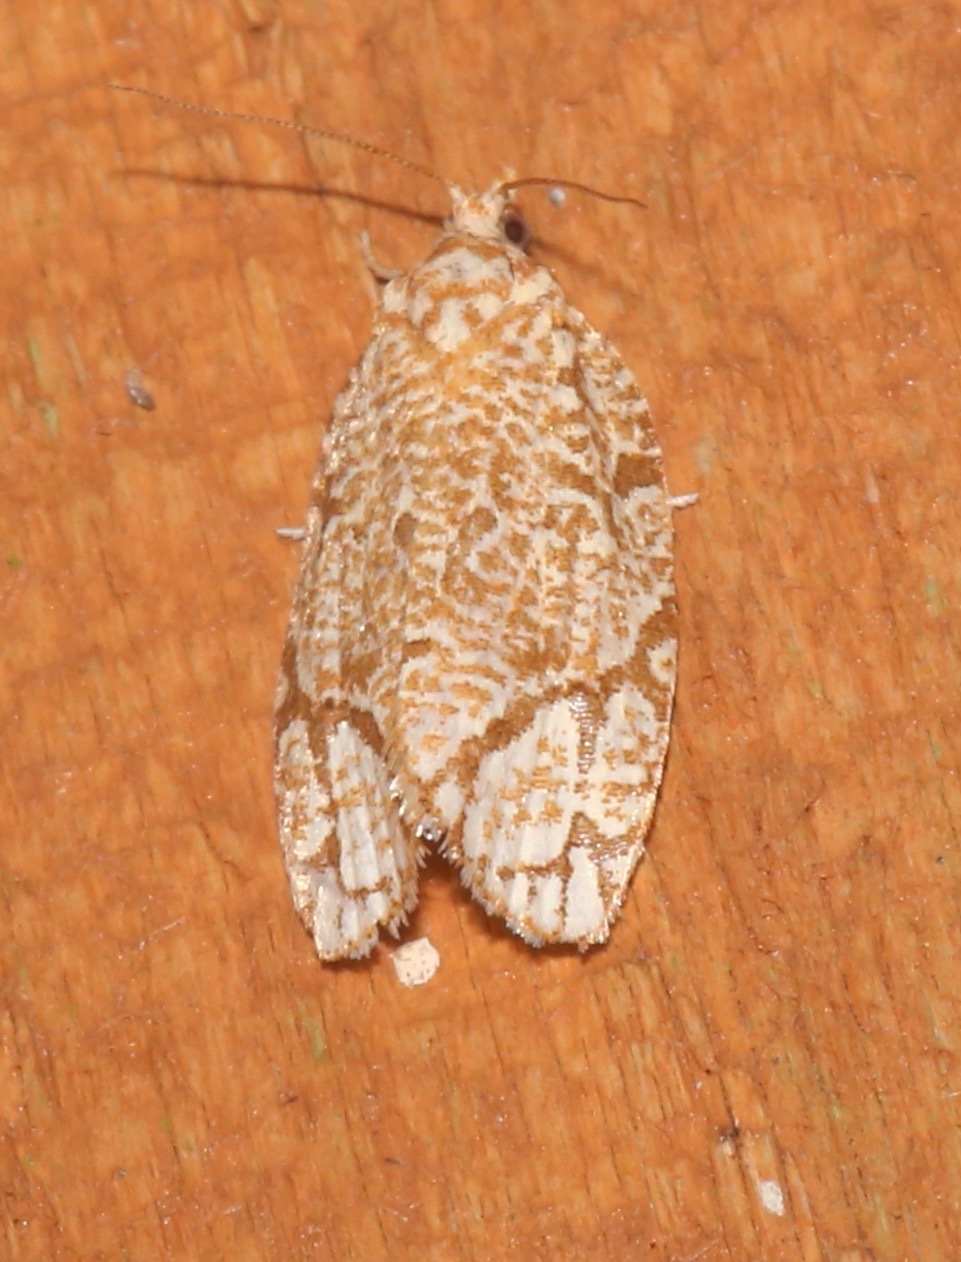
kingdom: Animalia
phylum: Arthropoda
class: Insecta
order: Lepidoptera
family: Tortricidae
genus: Argyrotaenia
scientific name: Argyrotaenia quercifoliana
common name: Yellow-winged oak leafroller moth
